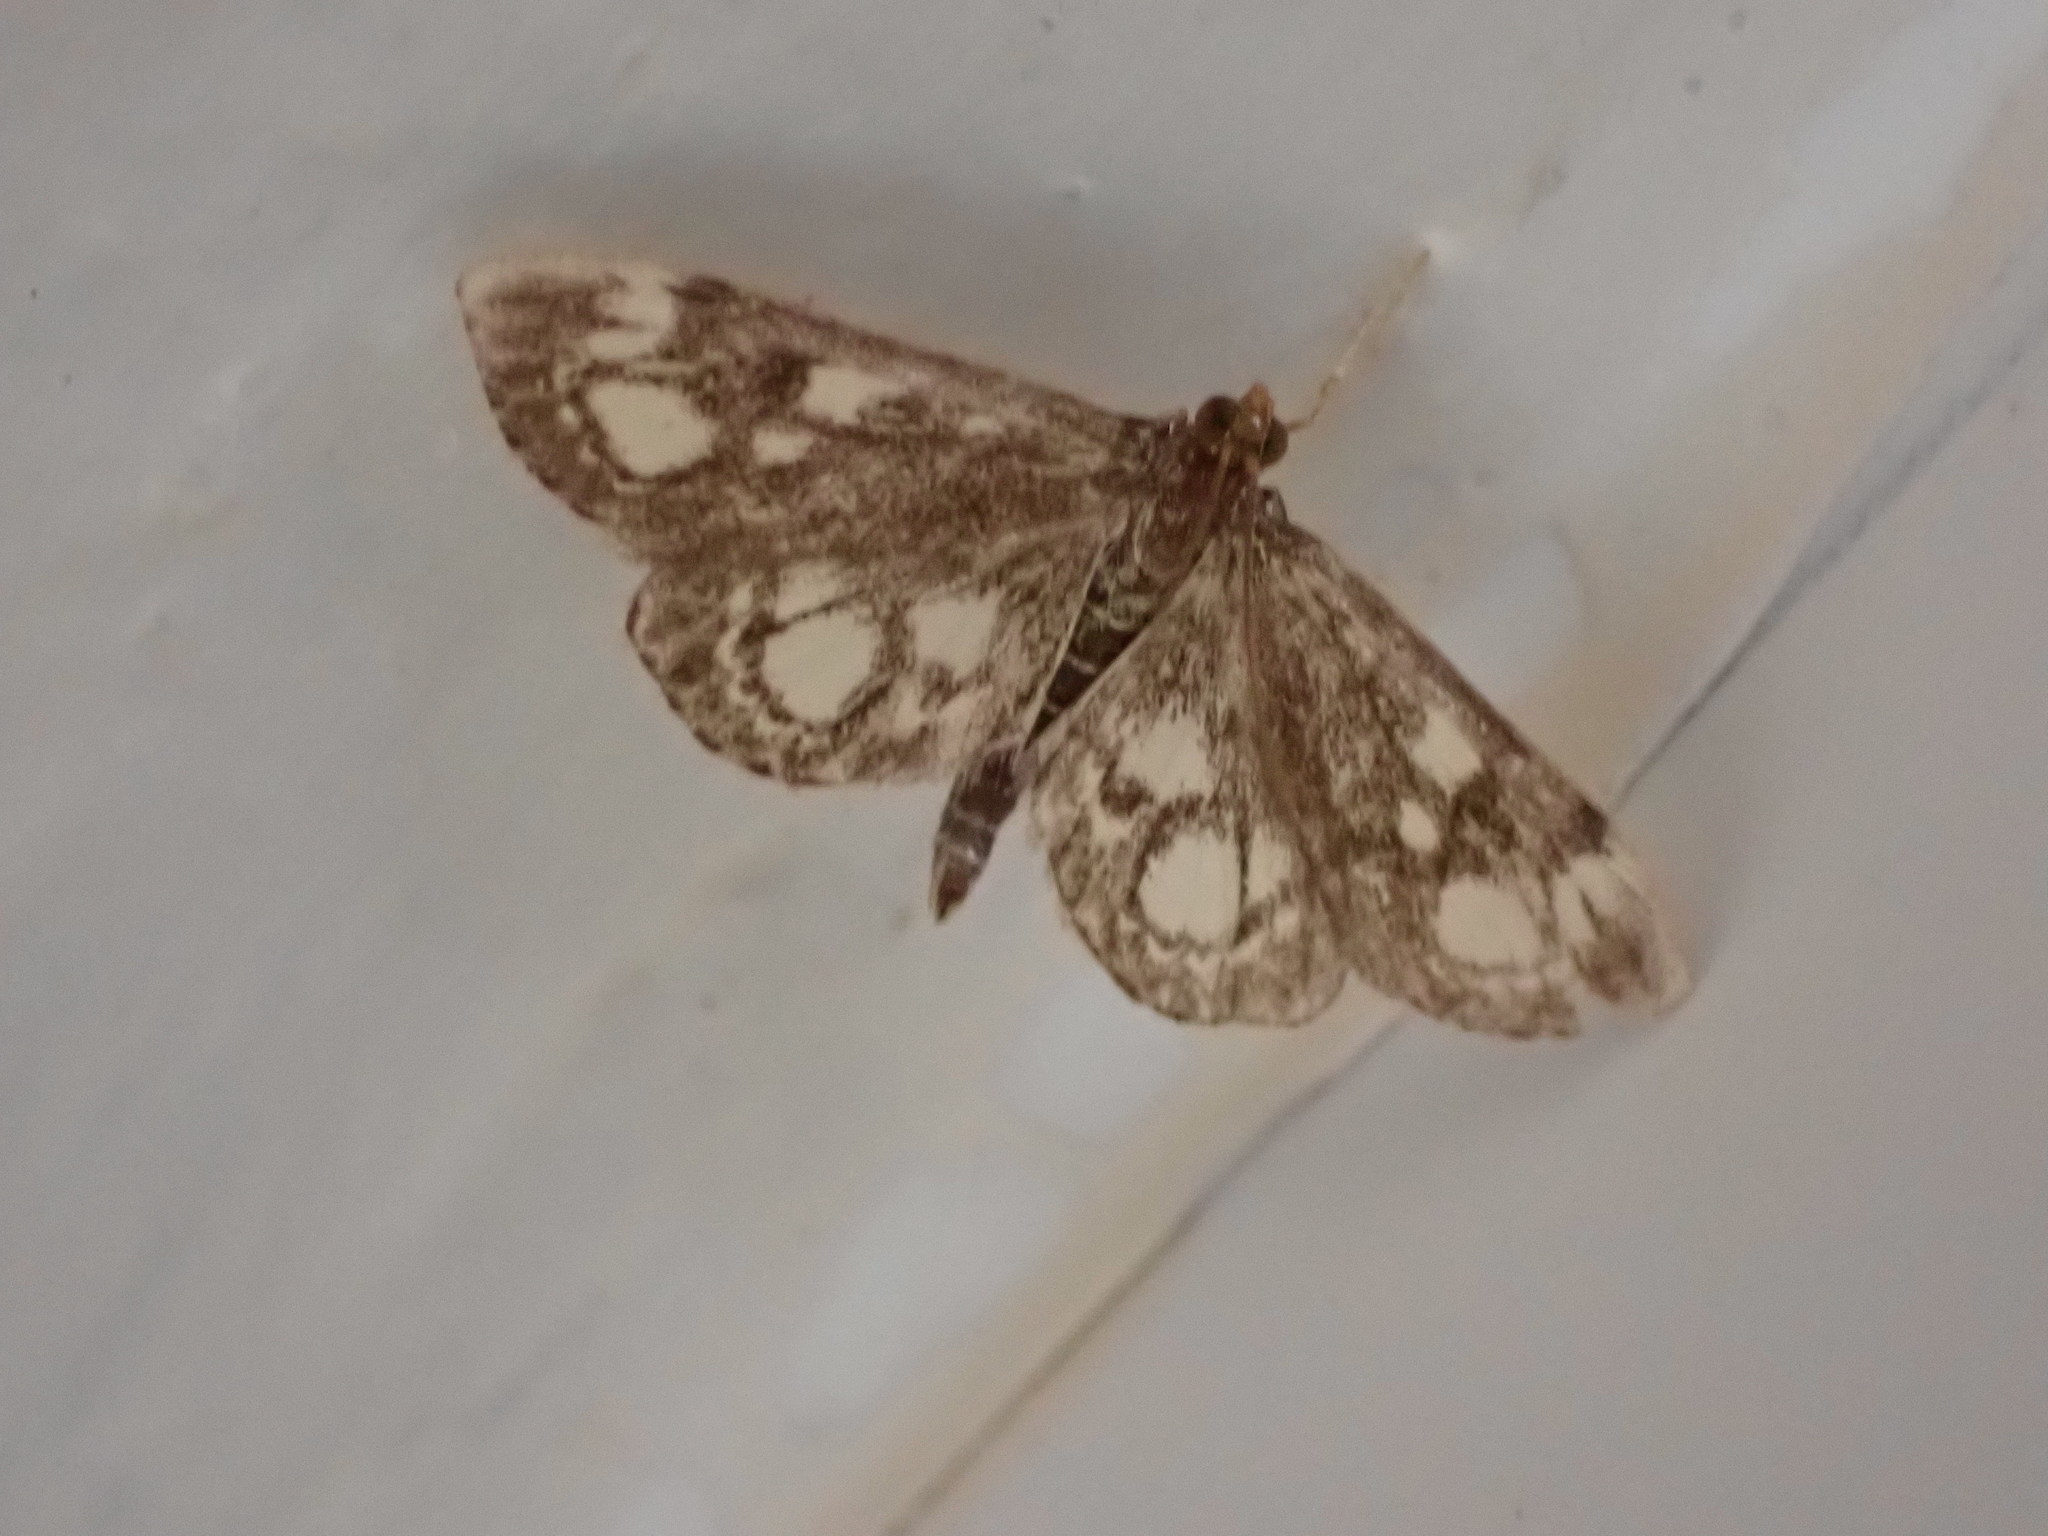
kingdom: Animalia
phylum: Arthropoda
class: Insecta
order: Lepidoptera
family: Crambidae
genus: Anania
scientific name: Anania coronata
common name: Elder pearl
